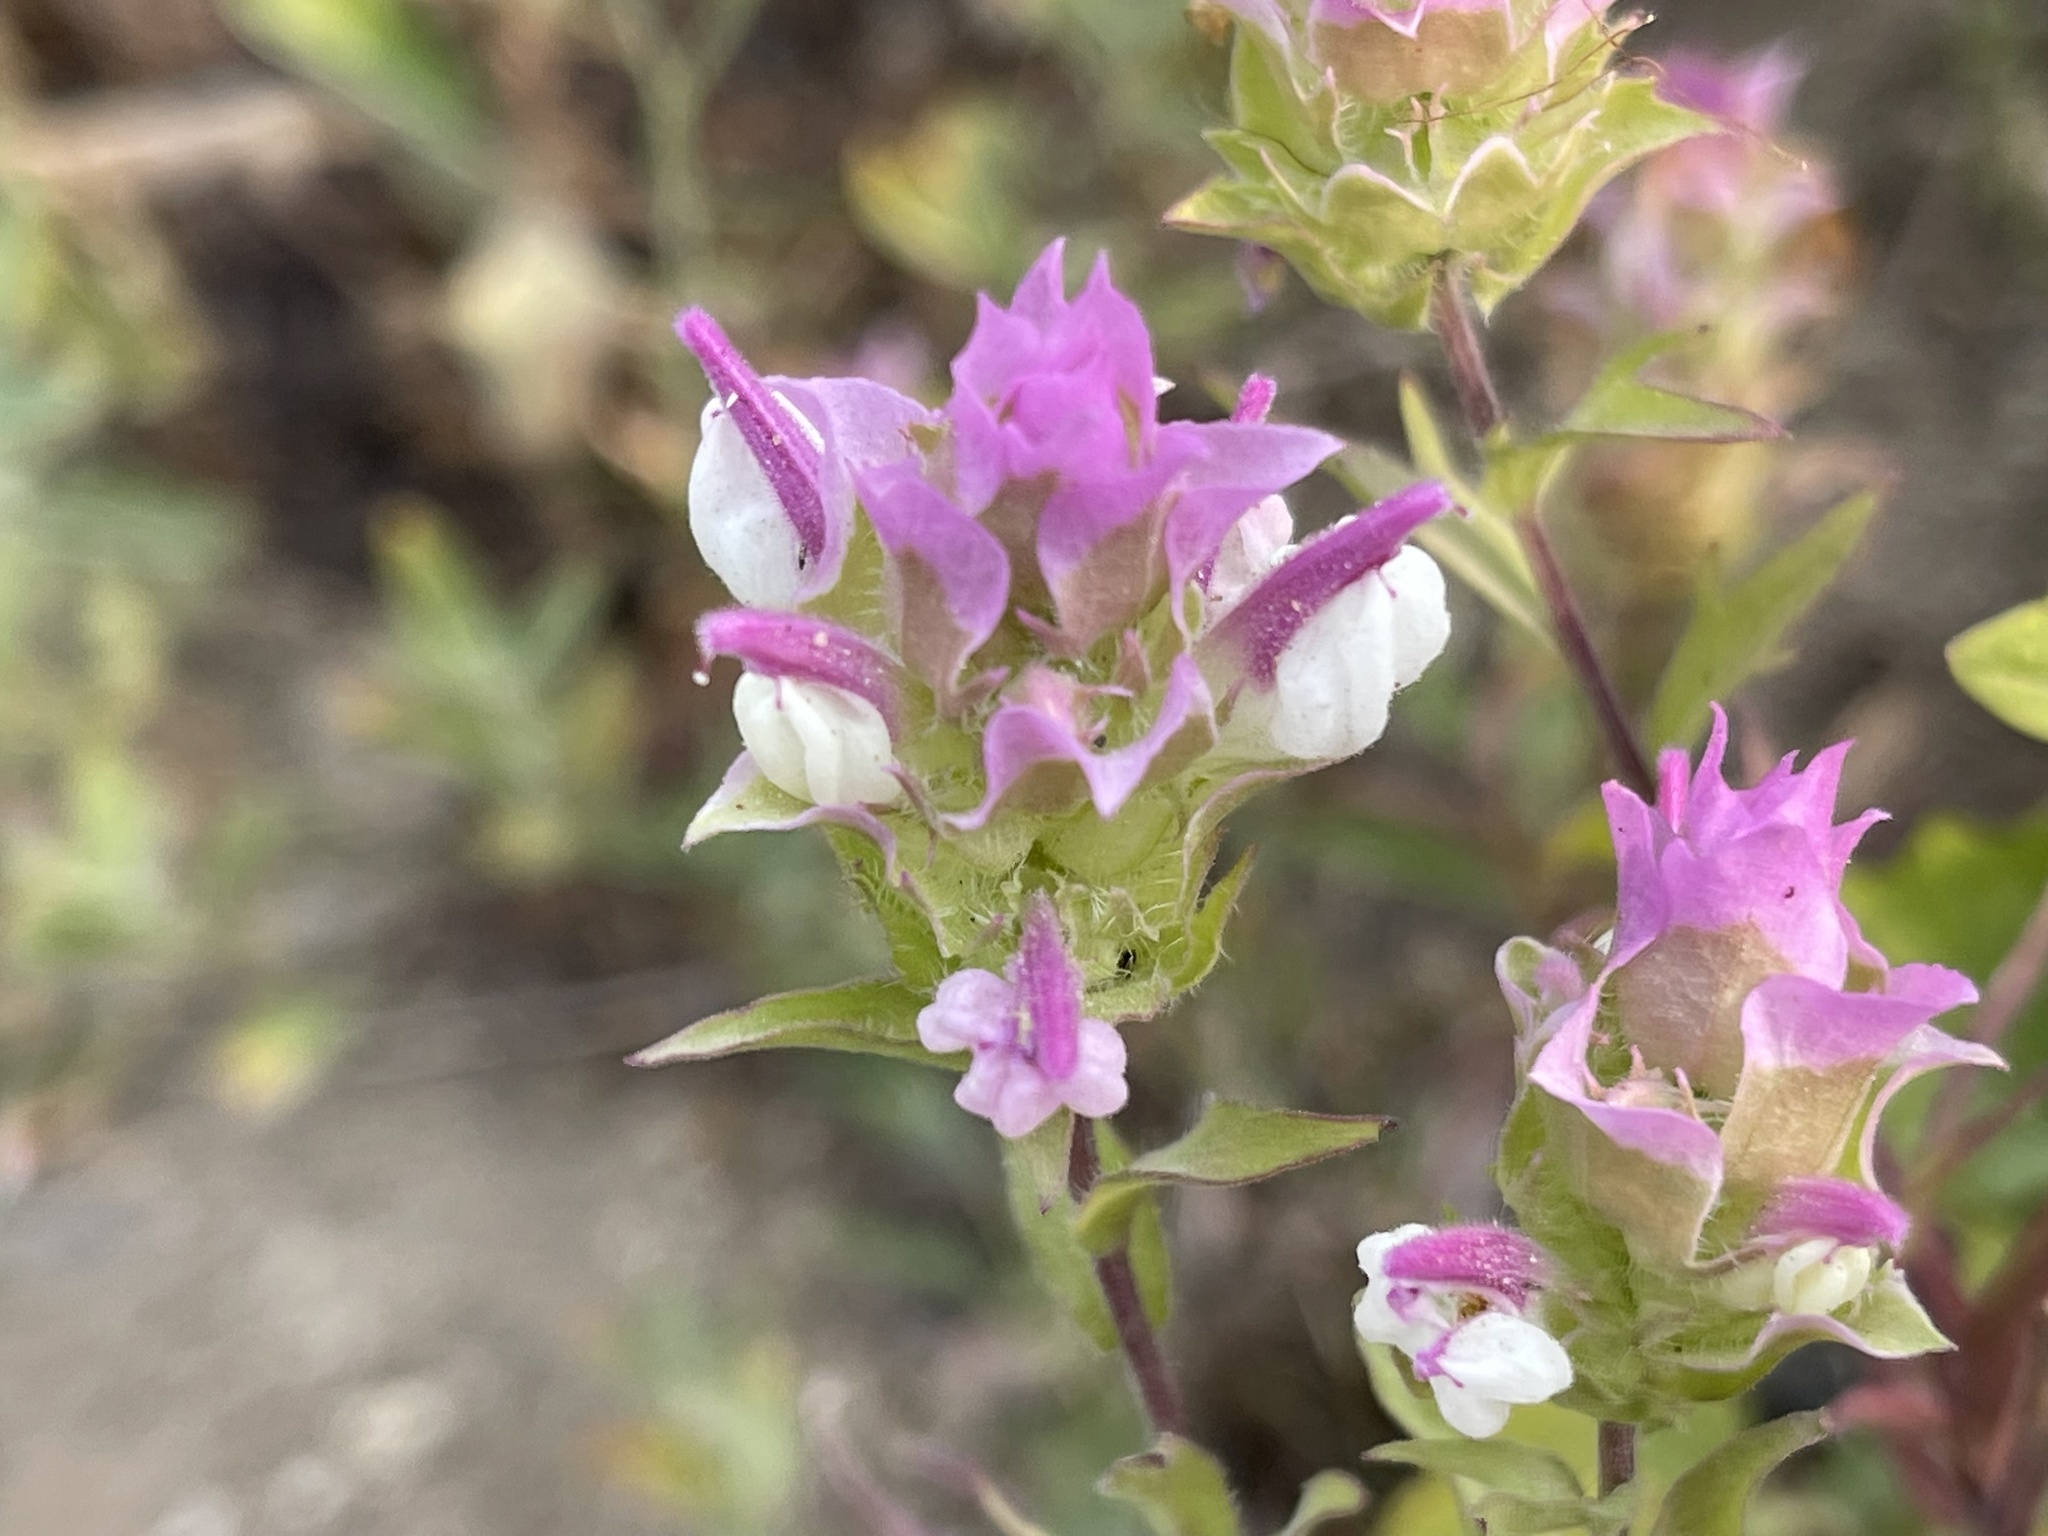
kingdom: Plantae
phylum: Tracheophyta
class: Magnoliopsida
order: Lamiales
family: Orobanchaceae
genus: Orthocarpus
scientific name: Orthocarpus cuspidatus
